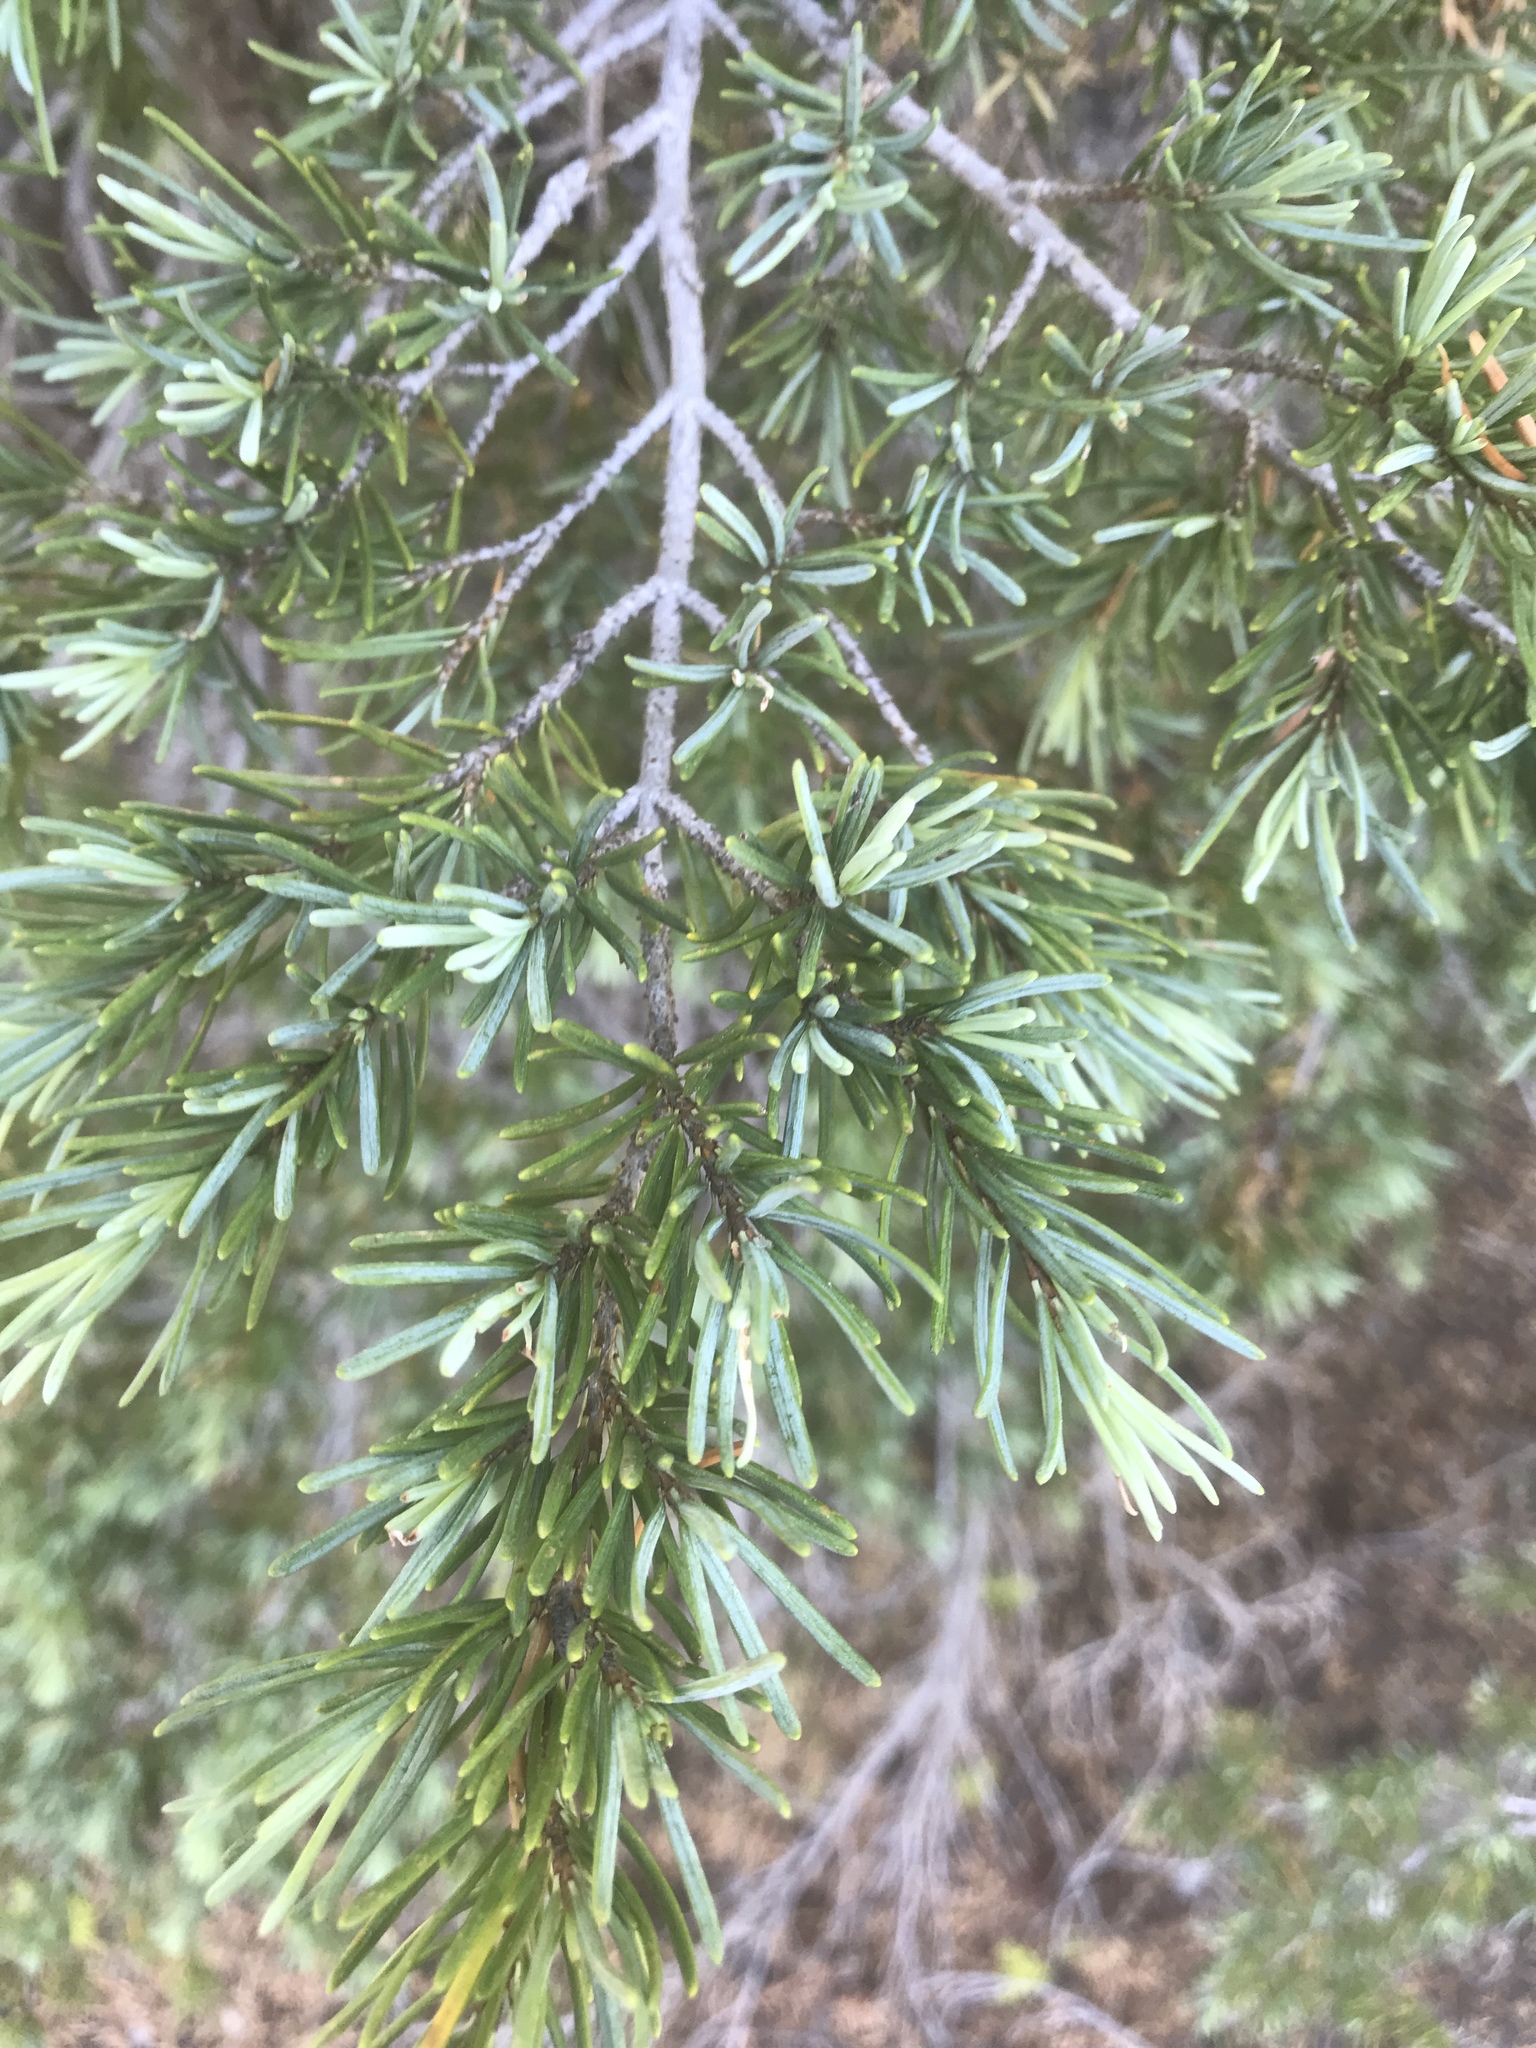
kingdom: Plantae
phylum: Tracheophyta
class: Pinopsida
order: Pinales
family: Pinaceae
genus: Tsuga
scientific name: Tsuga mertensiana
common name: Mountain hemlock
